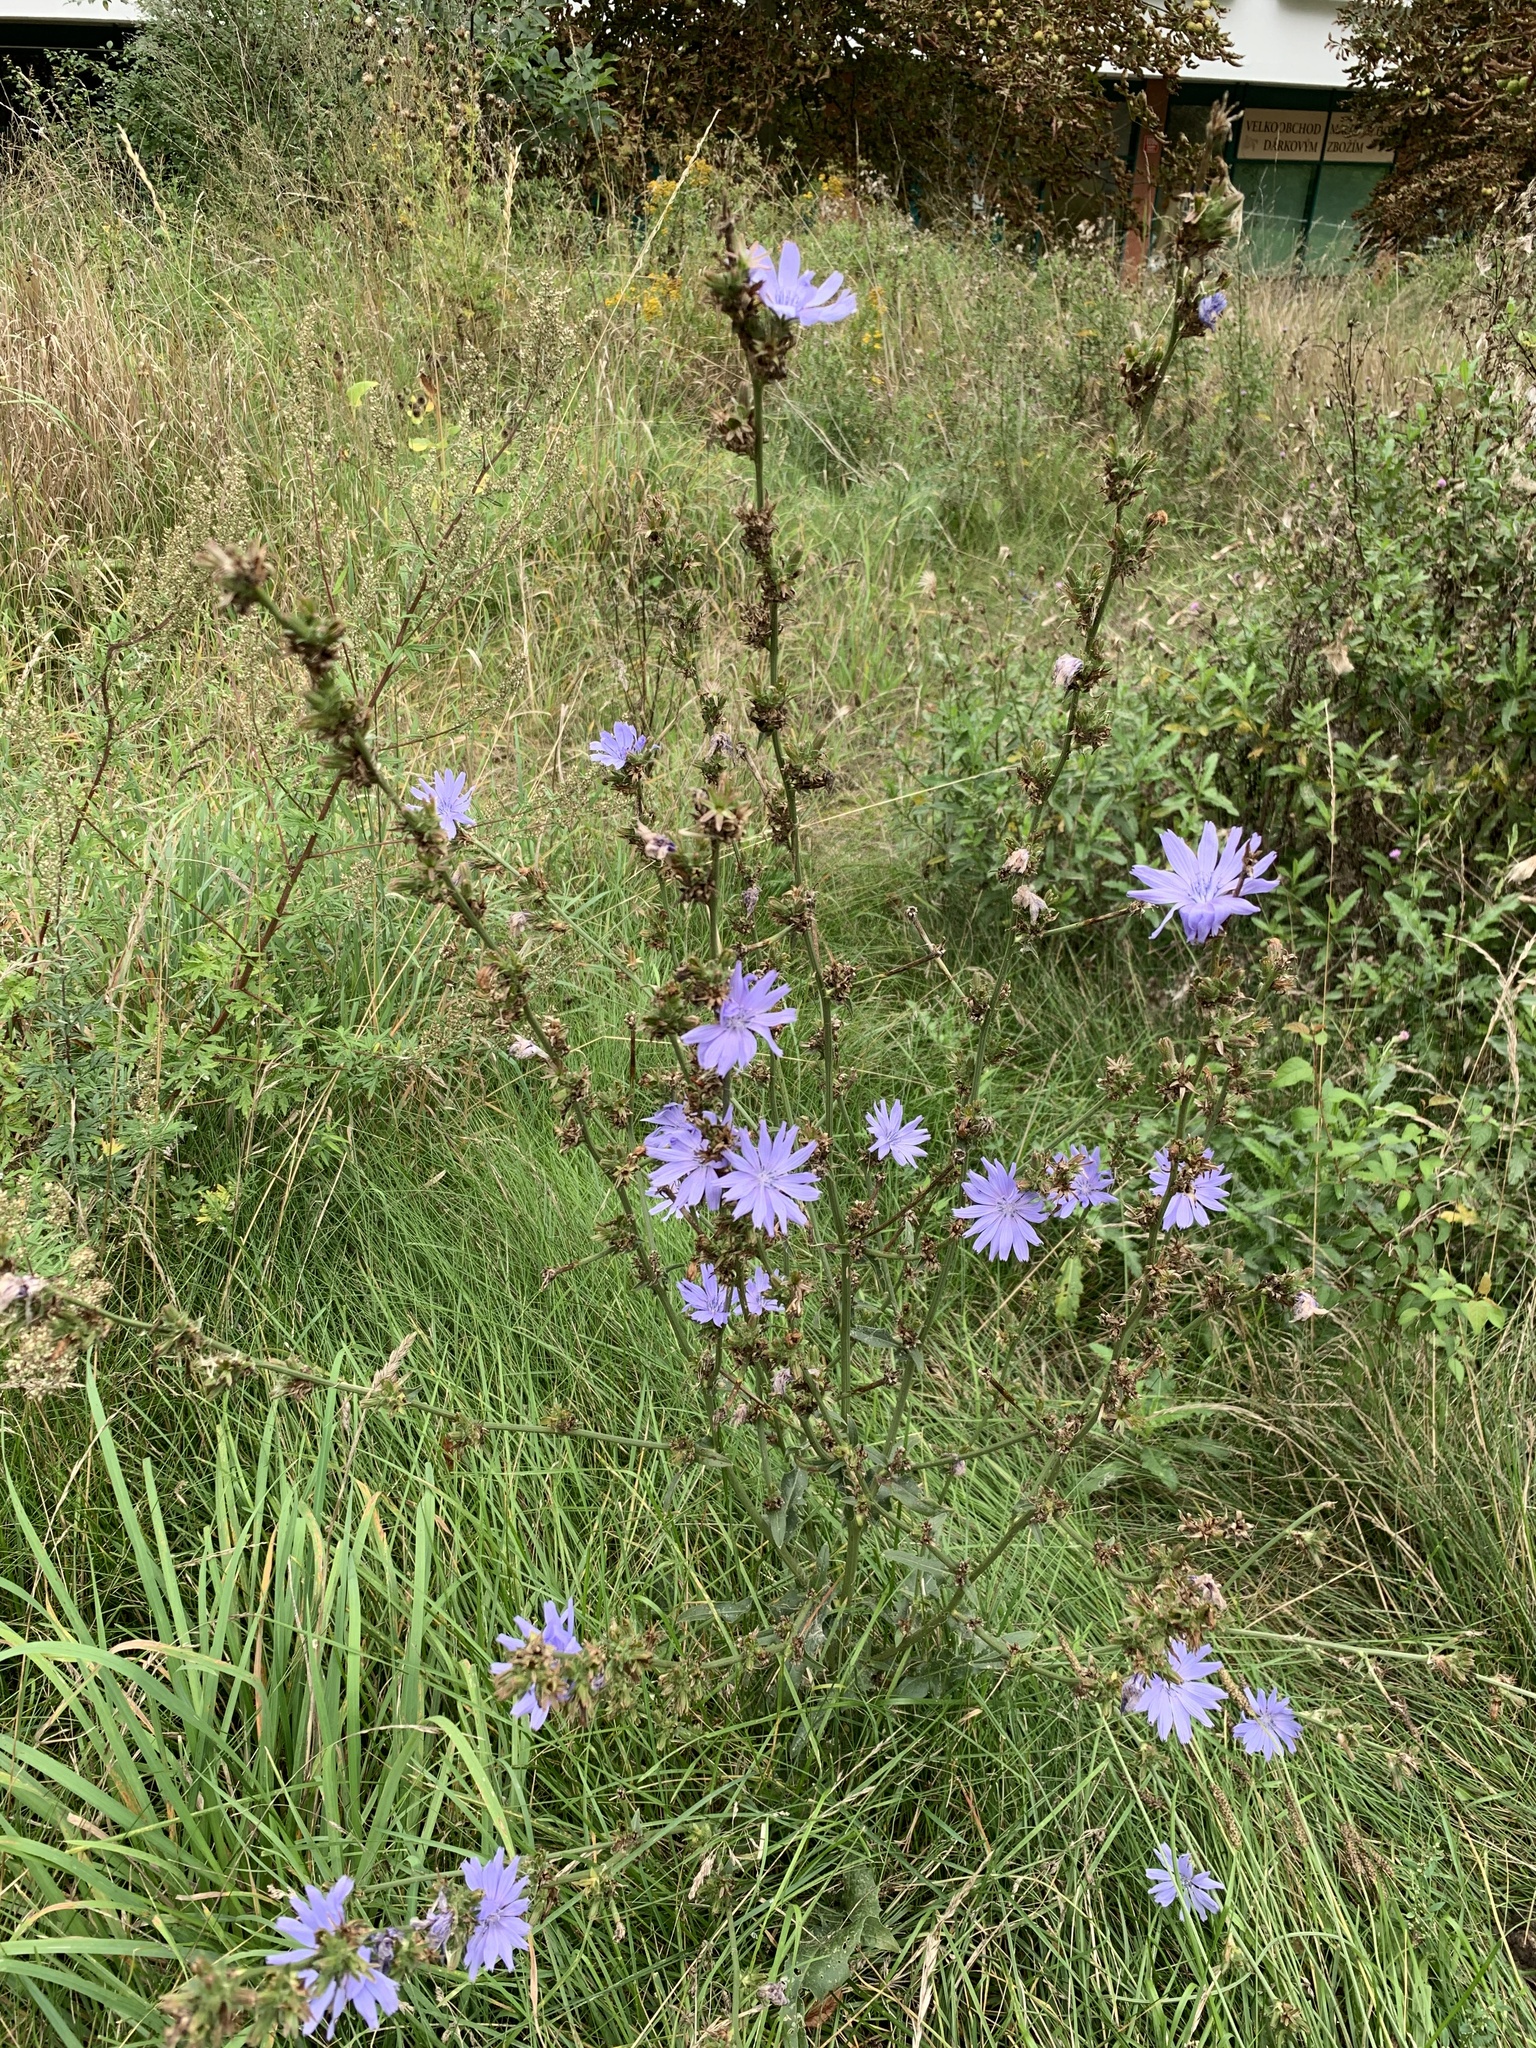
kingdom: Plantae
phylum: Tracheophyta
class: Magnoliopsida
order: Asterales
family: Asteraceae
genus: Cichorium
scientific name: Cichorium intybus
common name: Chicory
